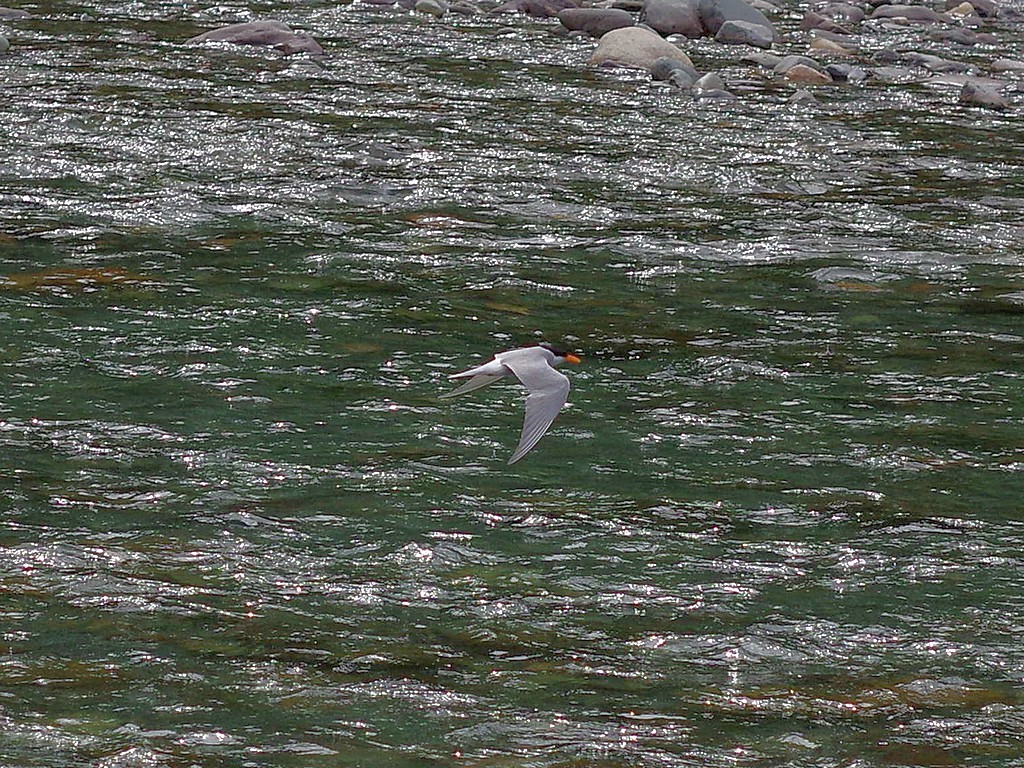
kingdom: Animalia
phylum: Chordata
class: Aves
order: Charadriiformes
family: Laridae
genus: Chlidonias
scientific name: Chlidonias albostriatus
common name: Black-fronted tern
